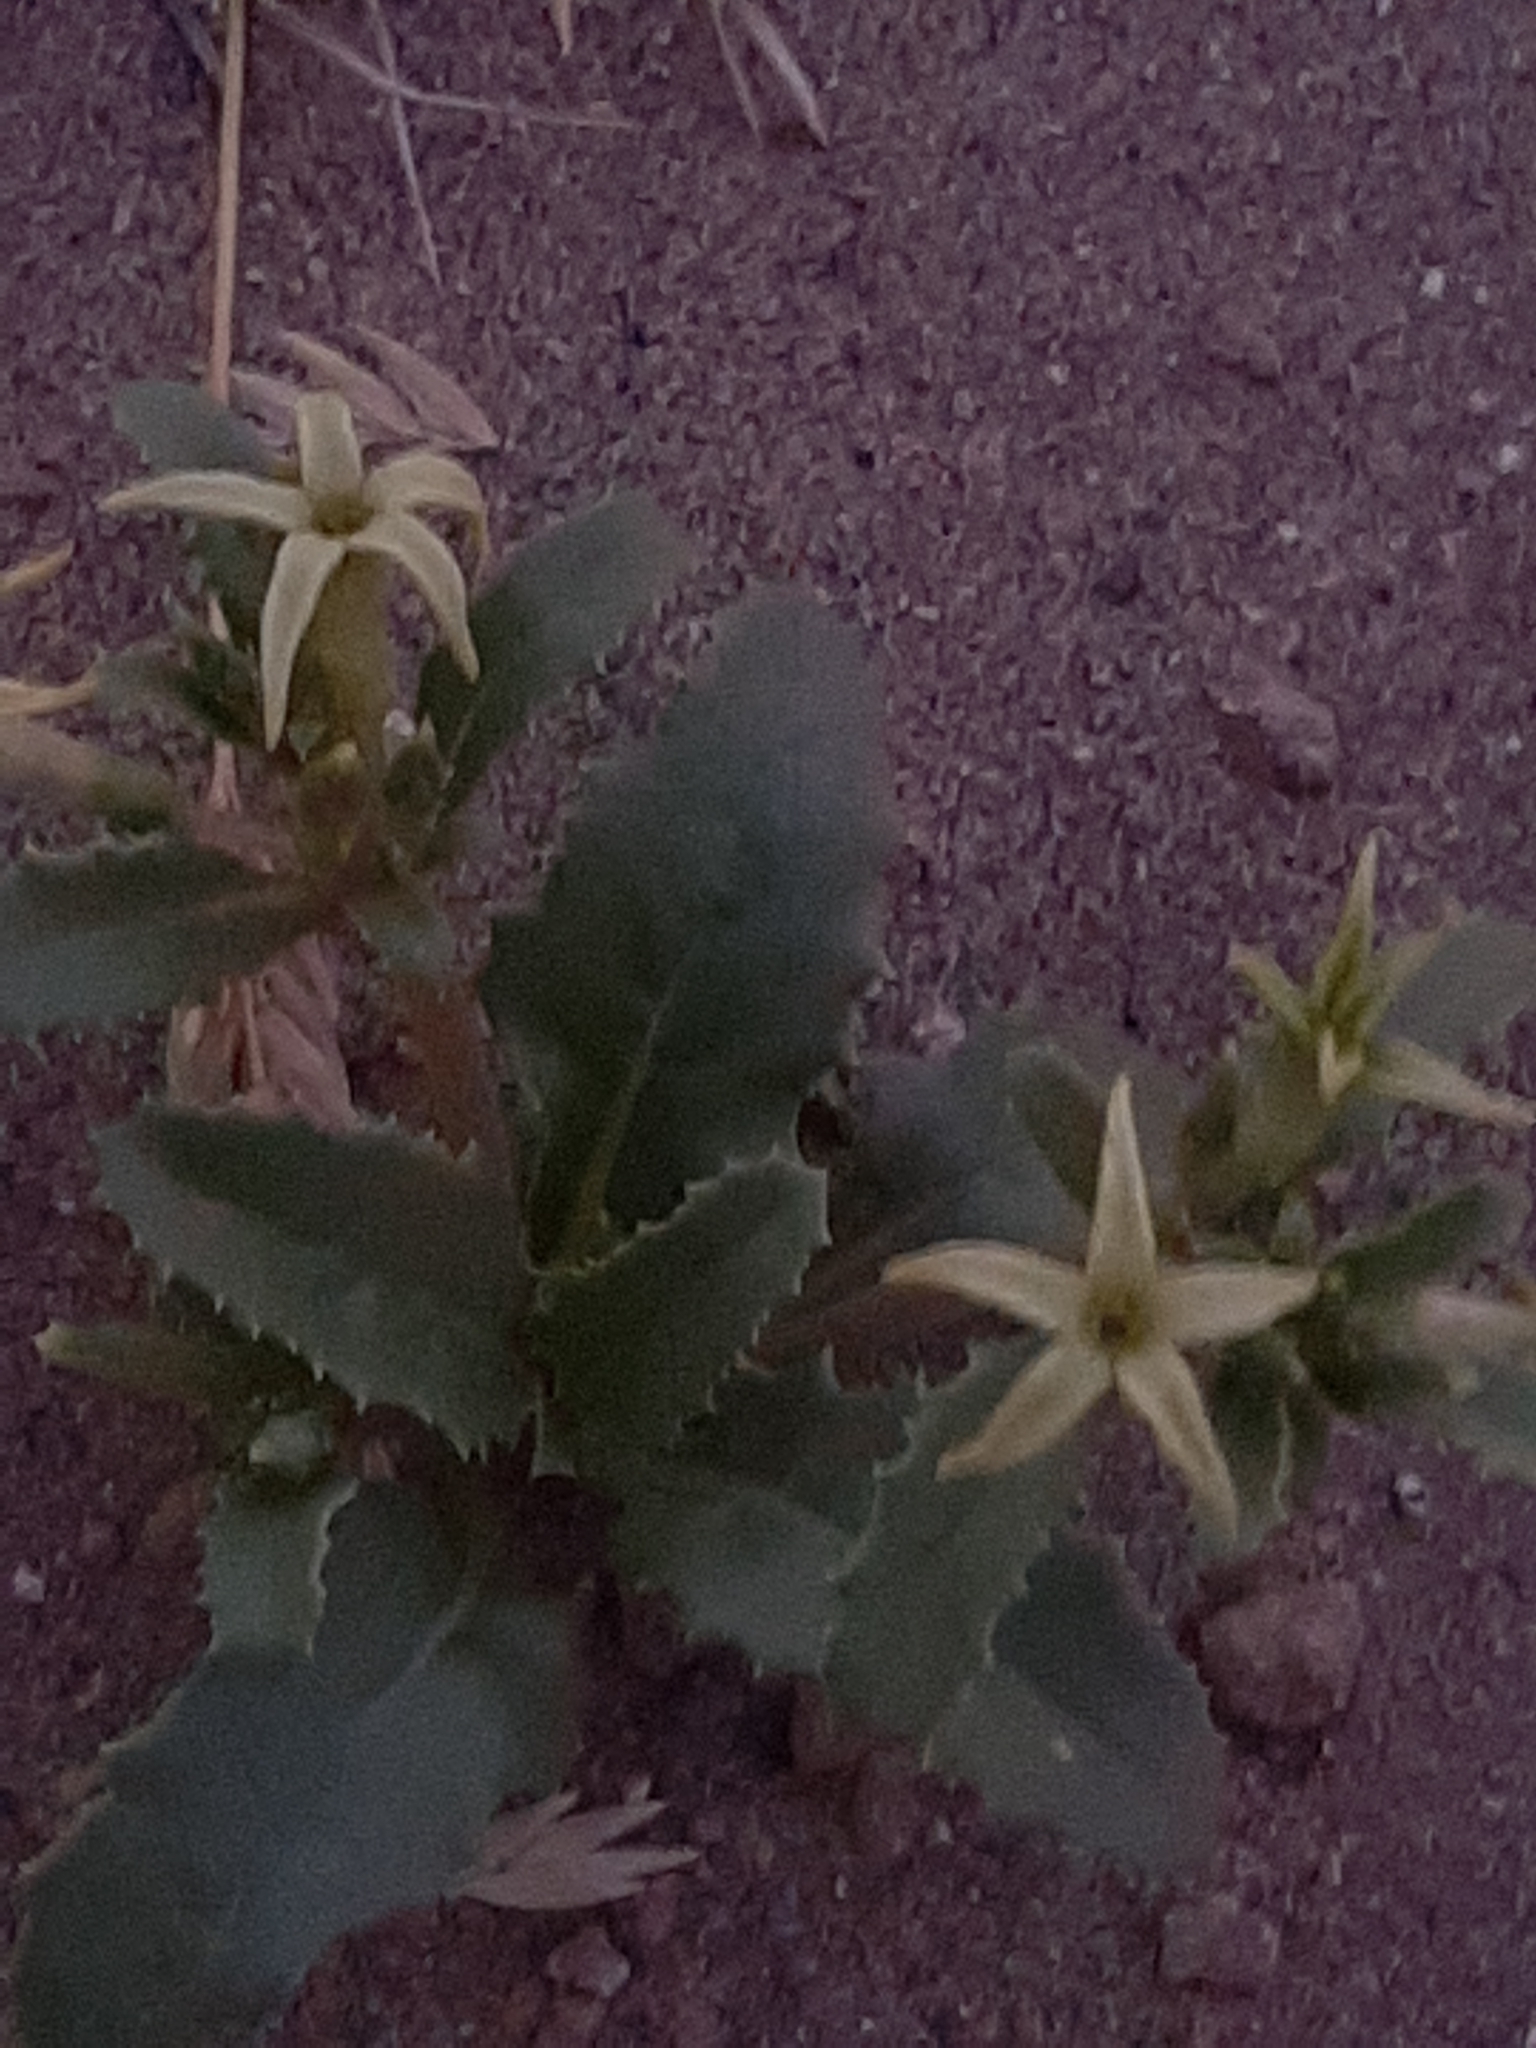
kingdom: Plantae
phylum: Tracheophyta
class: Magnoliopsida
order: Solanales
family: Solanaceae
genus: Jaborosa
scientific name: Jaborosa kurtzii
